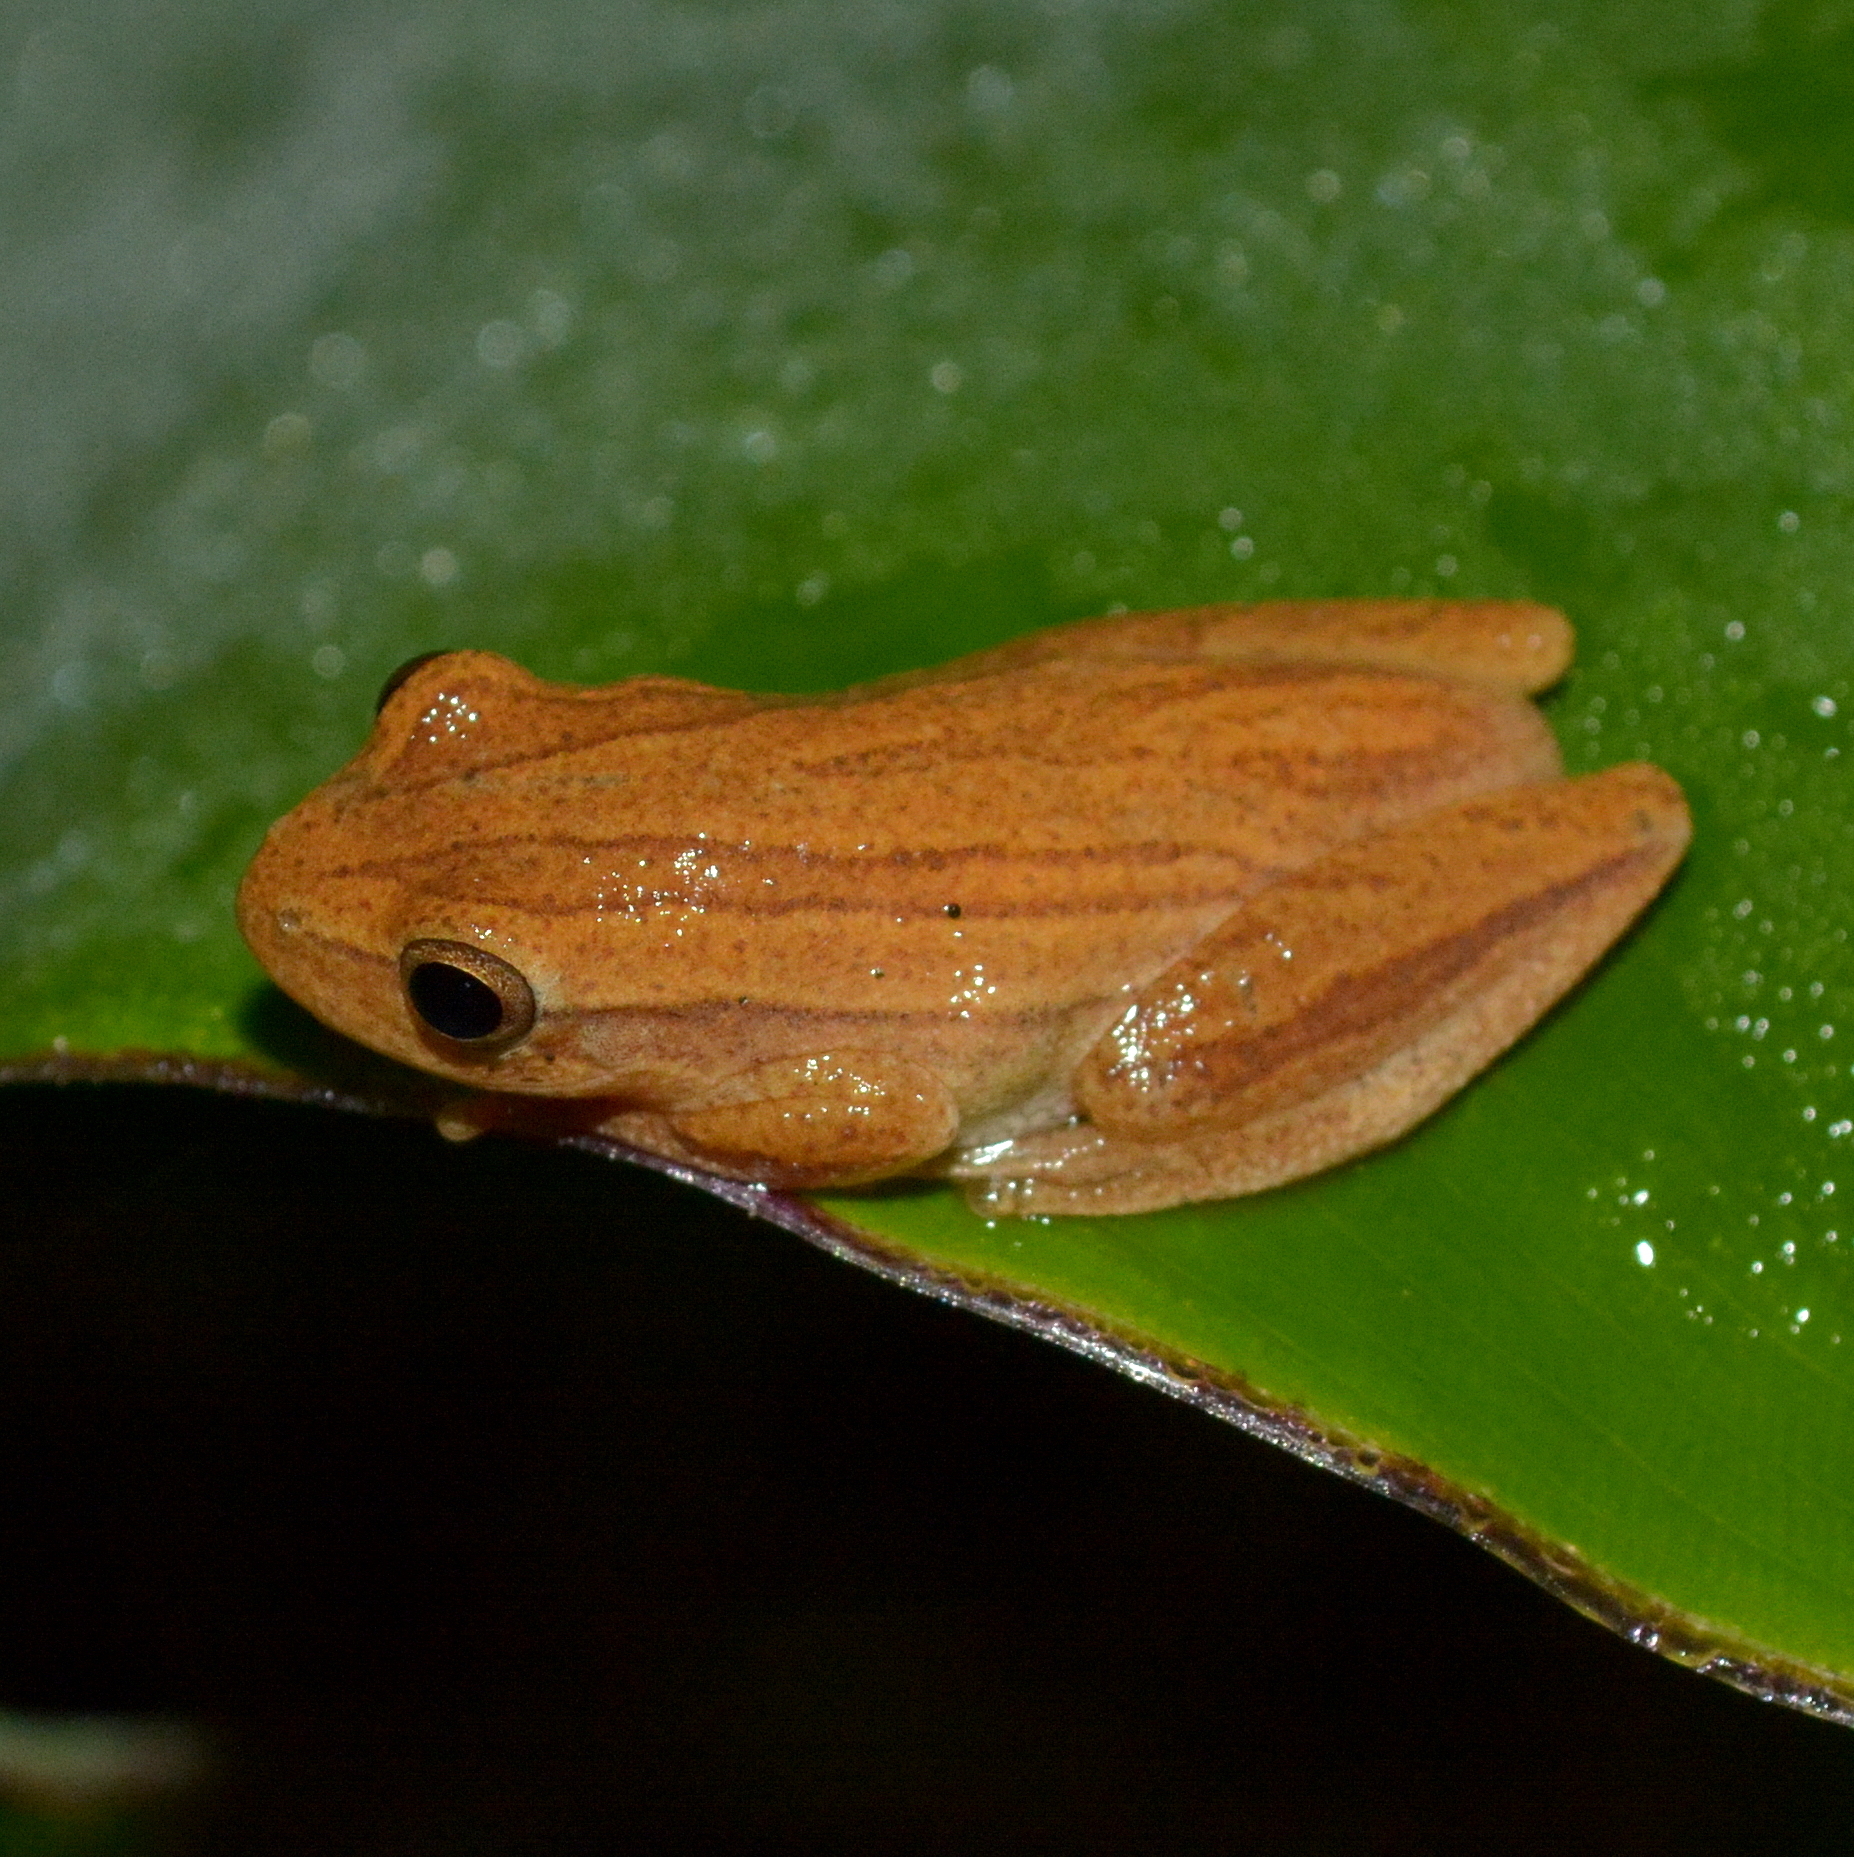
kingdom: Animalia
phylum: Chordata
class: Amphibia
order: Anura
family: Hylidae
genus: Dendropsophus
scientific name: Dendropsophus minutus
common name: Lesser treefrog
